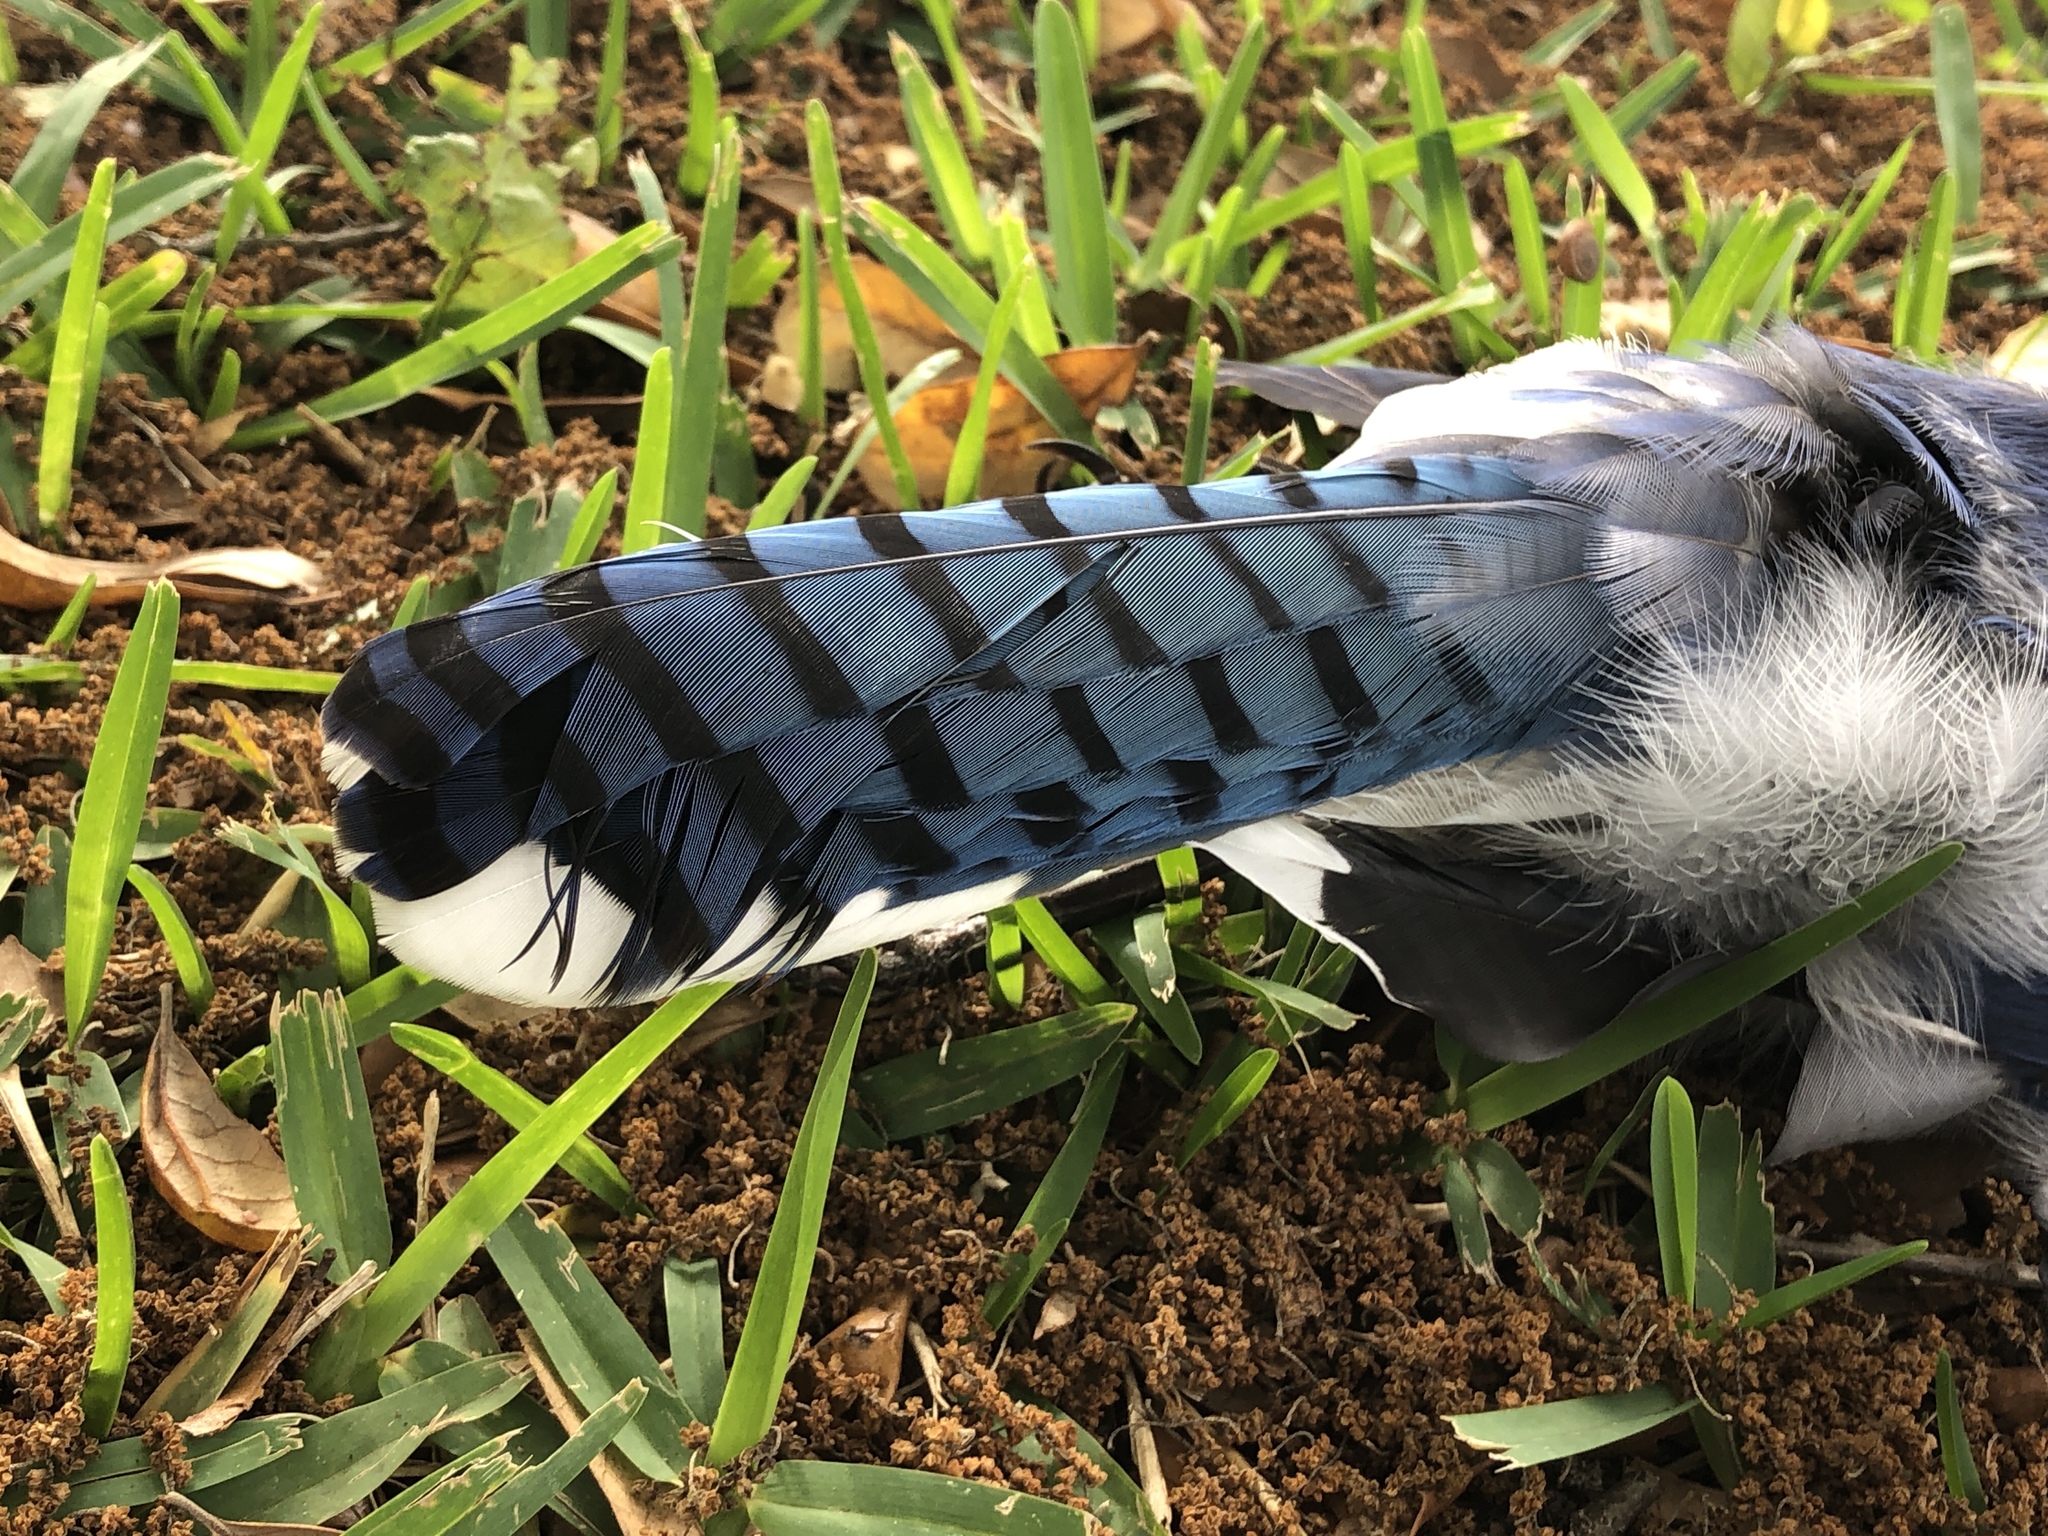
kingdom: Animalia
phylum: Chordata
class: Aves
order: Passeriformes
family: Corvidae
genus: Cyanocitta
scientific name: Cyanocitta cristata
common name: Blue jay
